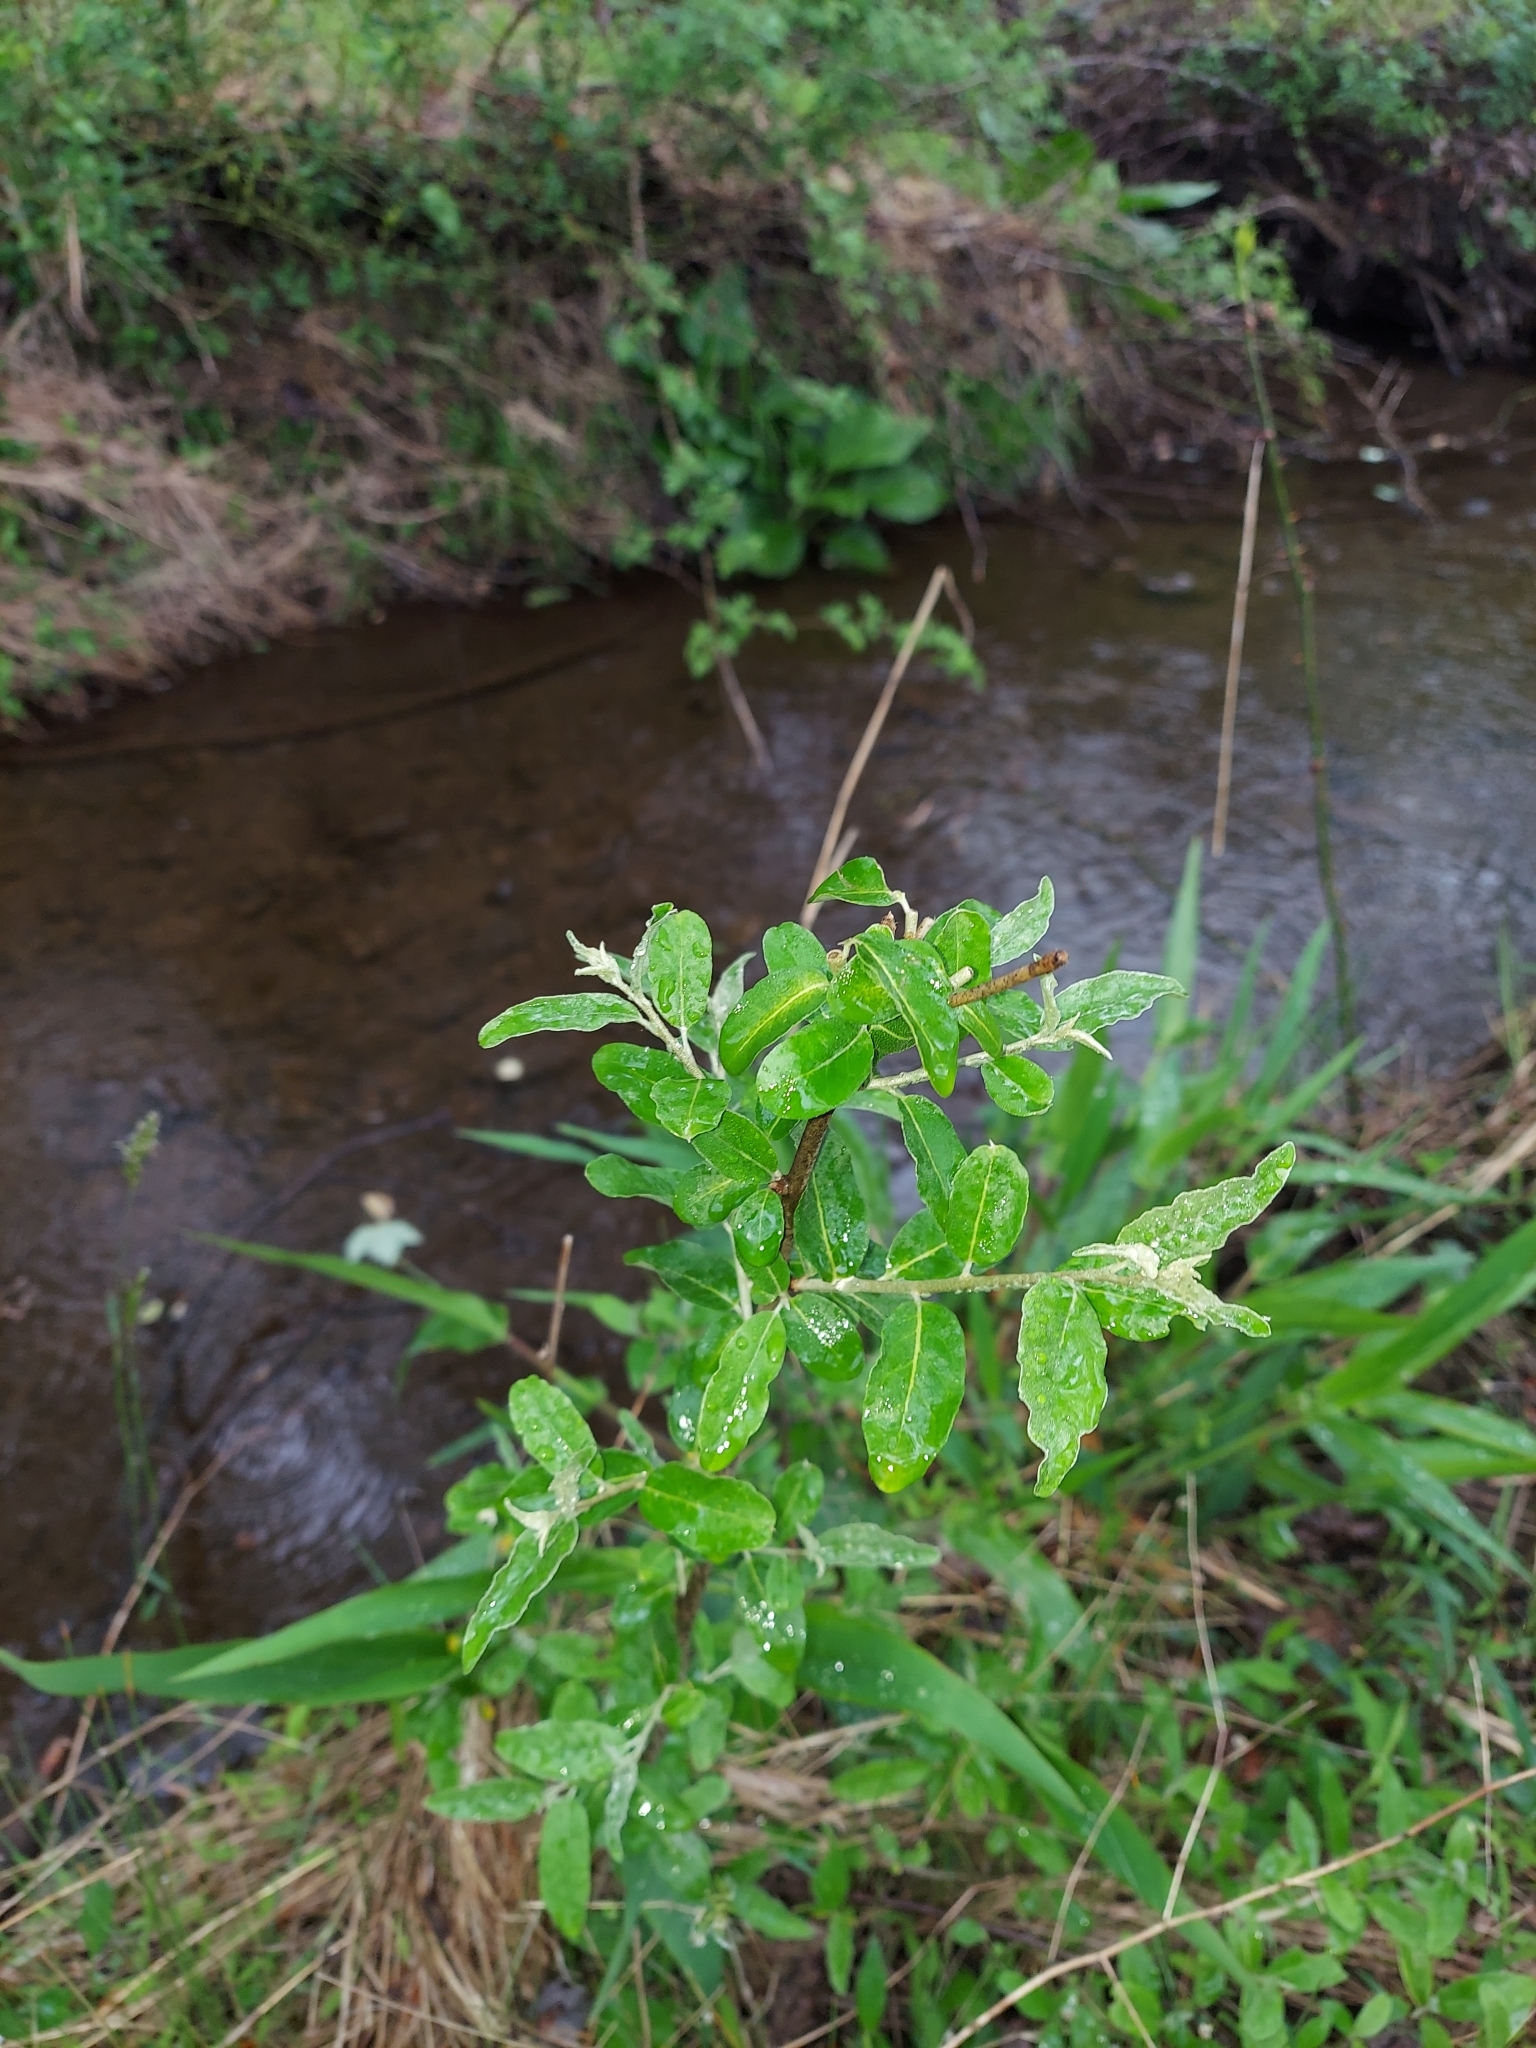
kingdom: Plantae
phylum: Tracheophyta
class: Magnoliopsida
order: Rosales
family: Elaeagnaceae
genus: Elaeagnus
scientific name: Elaeagnus umbellata
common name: Autumn olive
